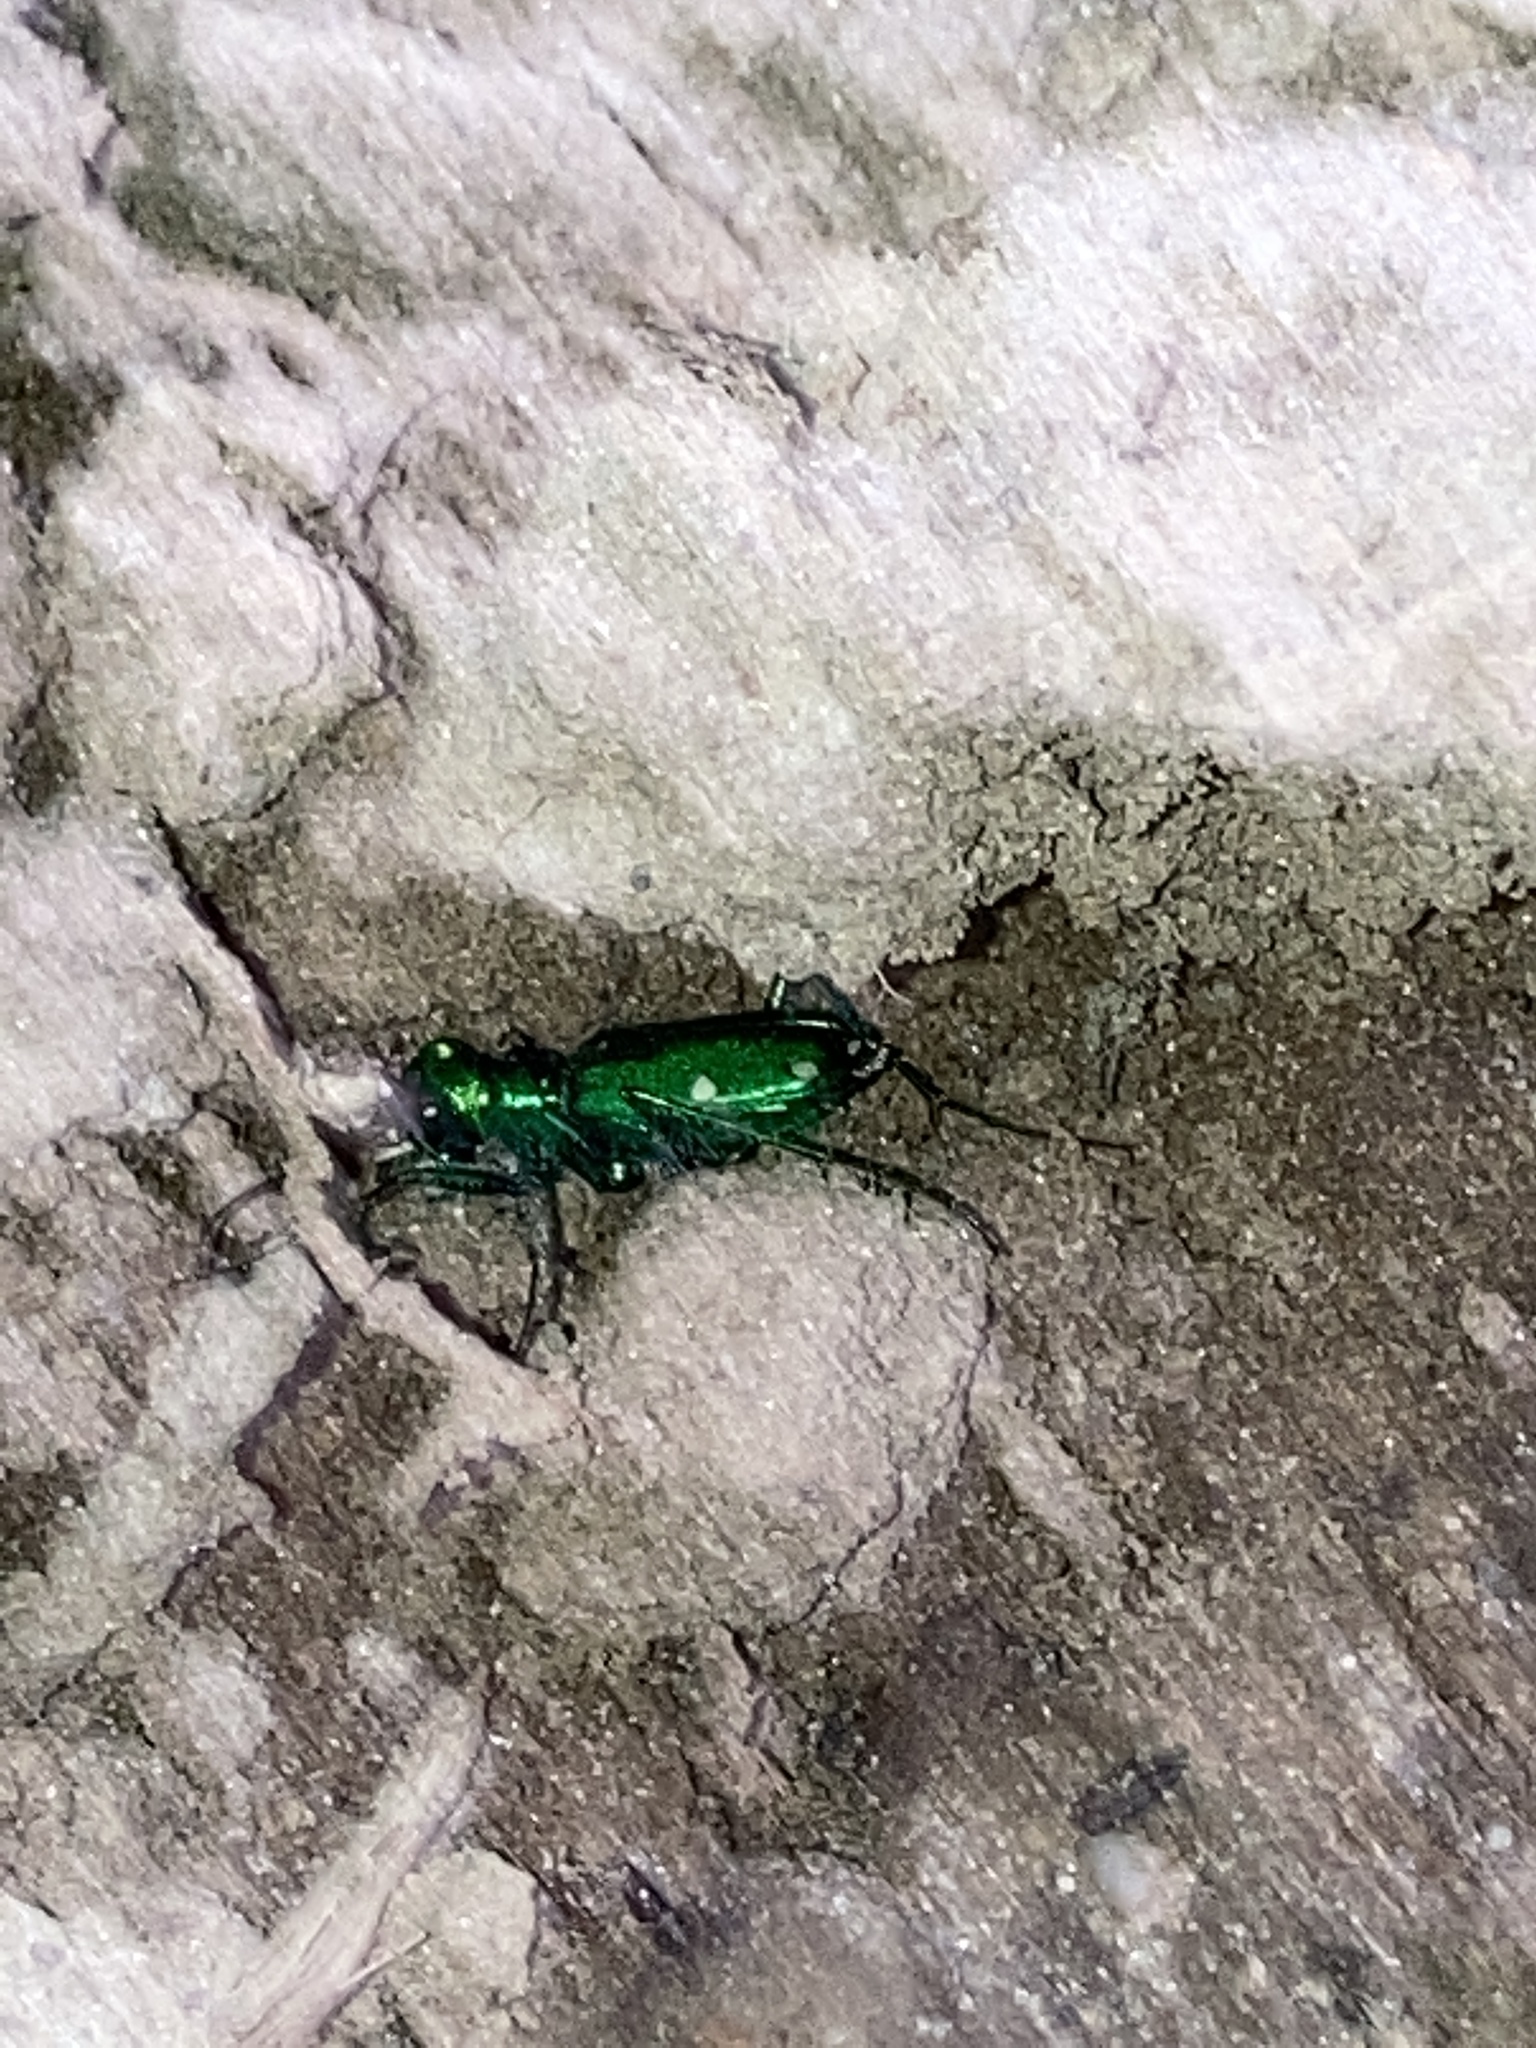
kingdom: Animalia
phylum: Arthropoda
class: Insecta
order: Coleoptera
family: Carabidae
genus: Cicindela
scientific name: Cicindela sexguttata
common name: Six-spotted tiger beetle
